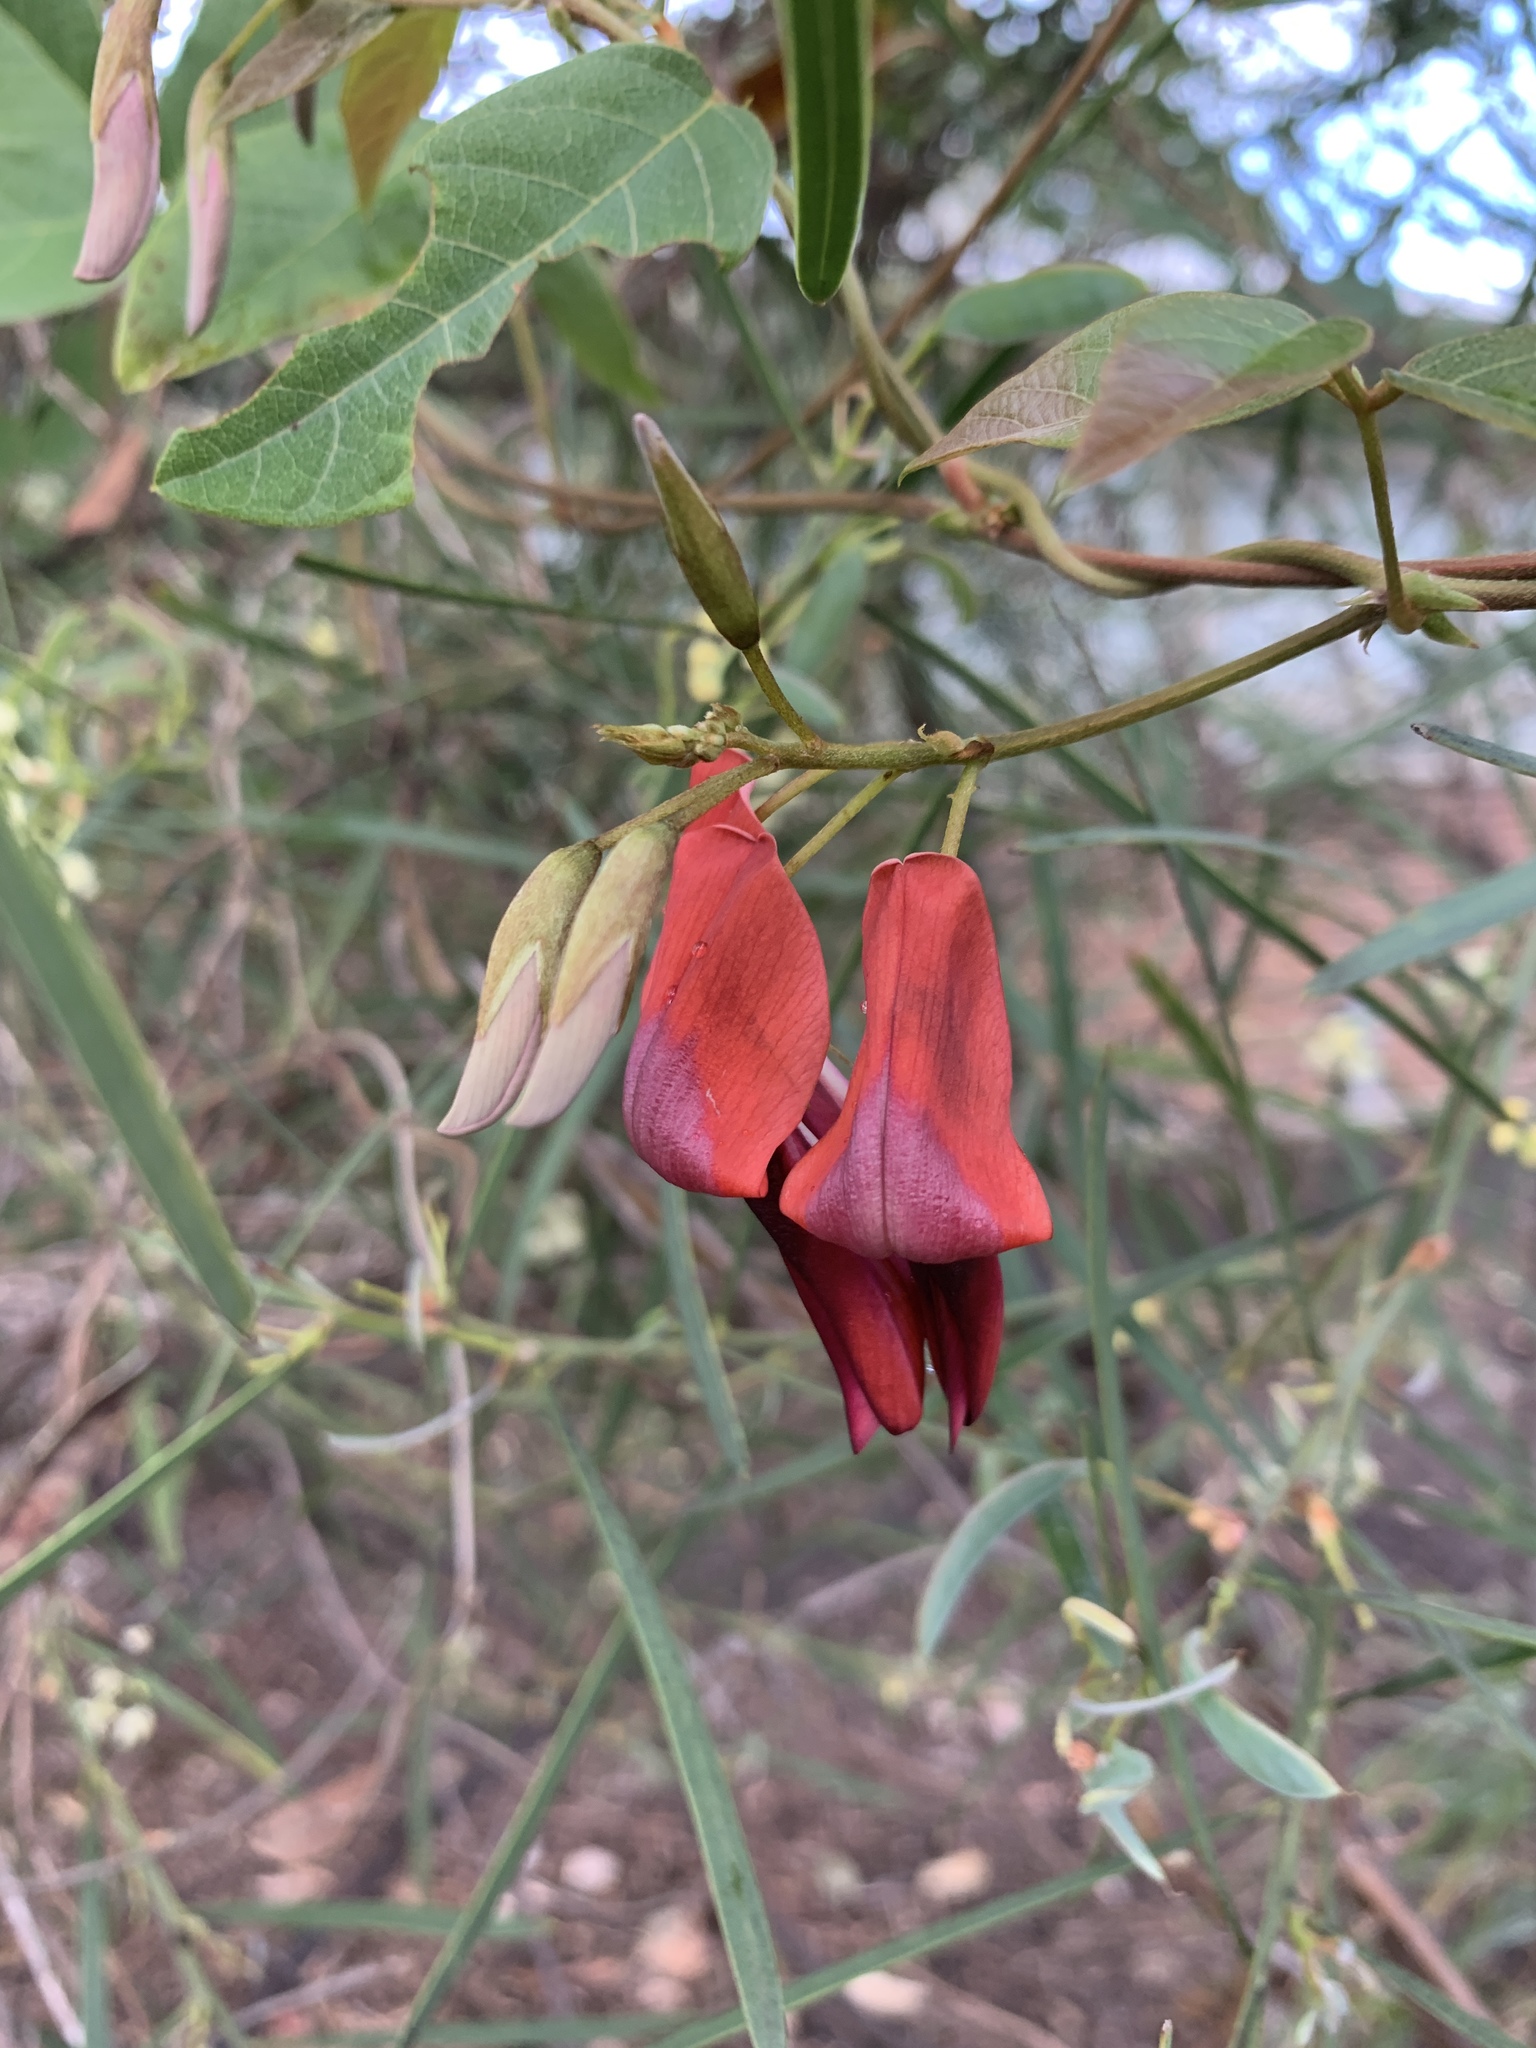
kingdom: Plantae
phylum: Tracheophyta
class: Magnoliopsida
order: Fabales
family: Fabaceae
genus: Kennedia
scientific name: Kennedia rubicunda
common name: Red kennedy-pea
